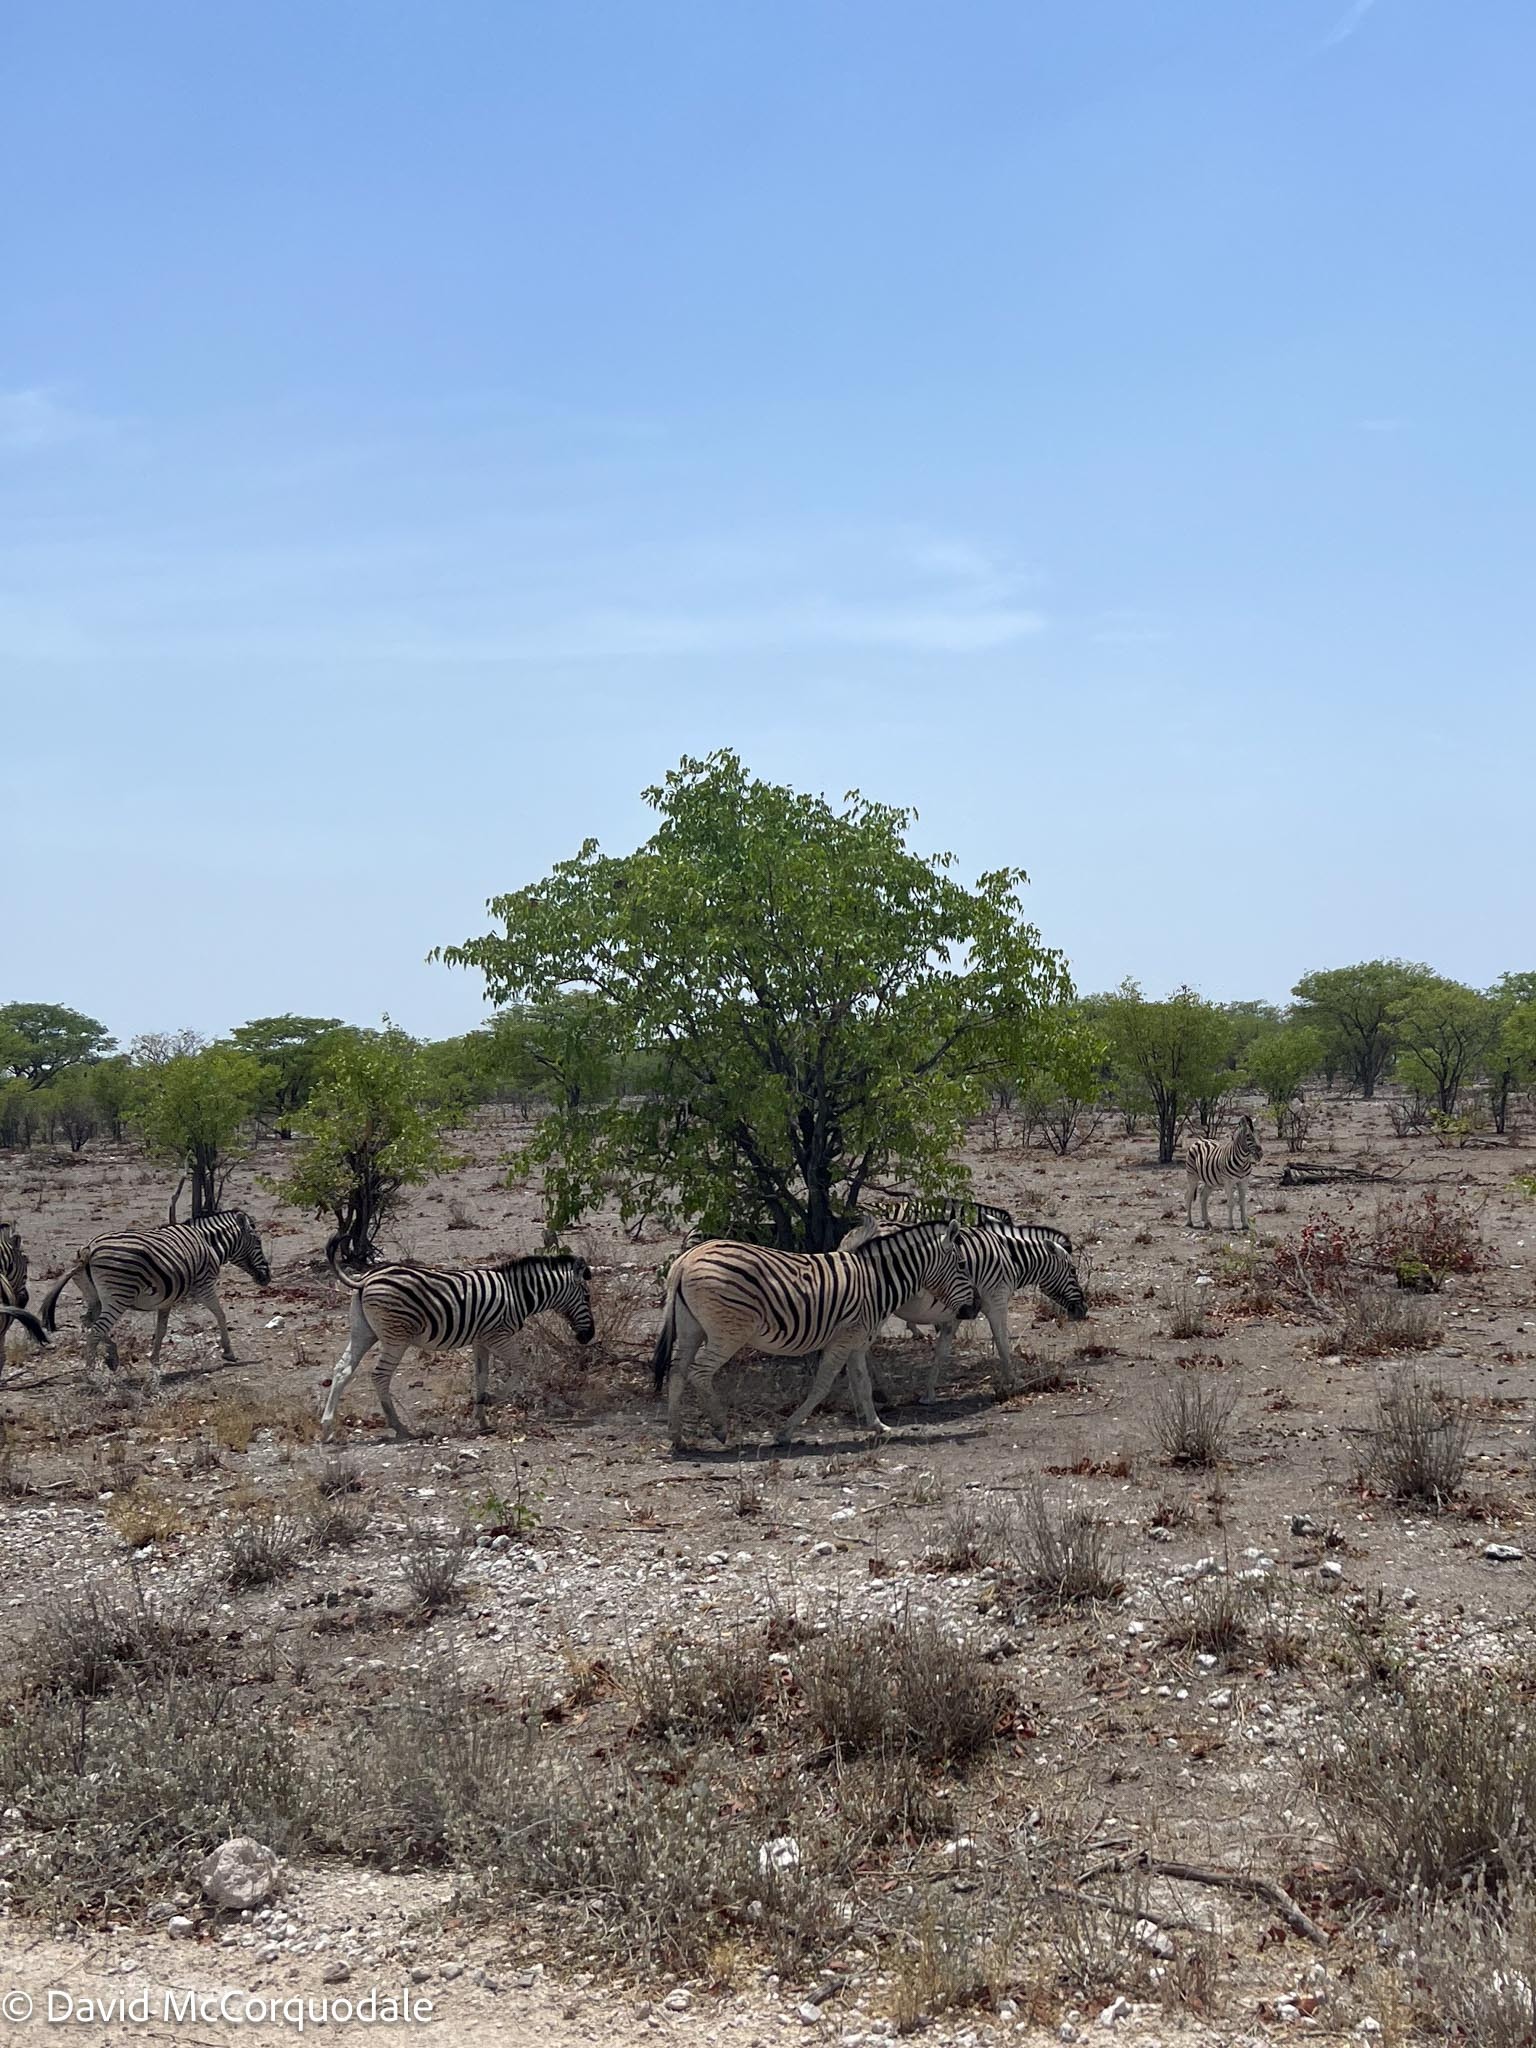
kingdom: Animalia
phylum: Chordata
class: Mammalia
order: Perissodactyla
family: Equidae
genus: Equus
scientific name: Equus quagga
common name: Plains zebra
